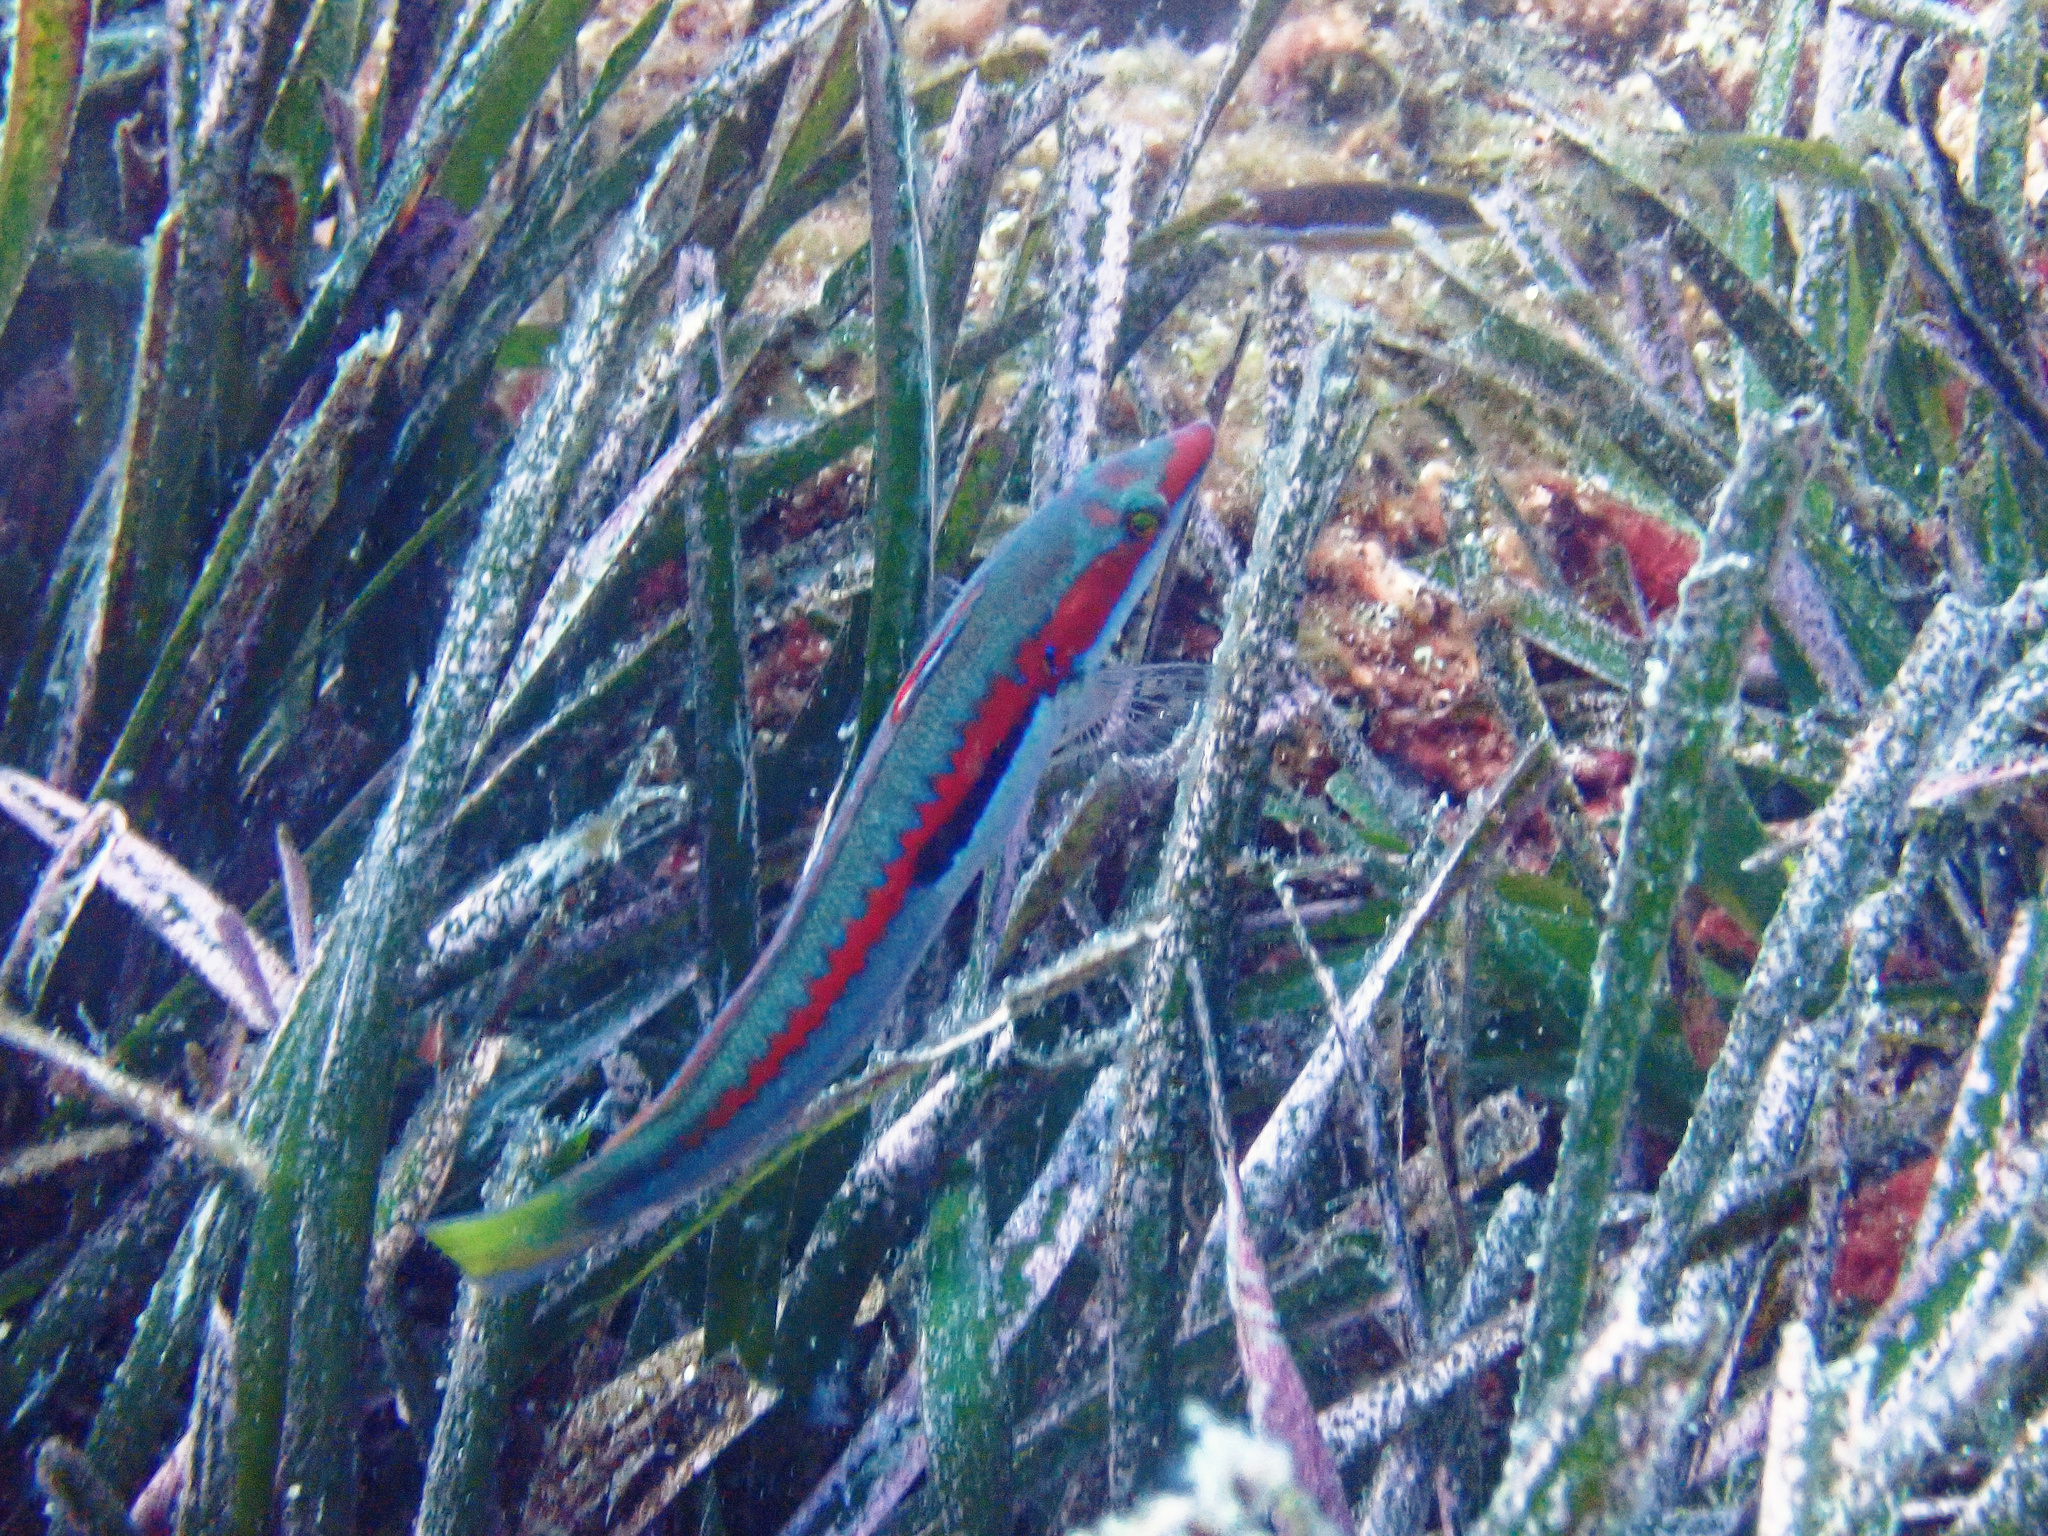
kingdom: Animalia
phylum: Chordata
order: Perciformes
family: Labridae
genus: Coris
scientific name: Coris julis
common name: Rainbow wrasse
